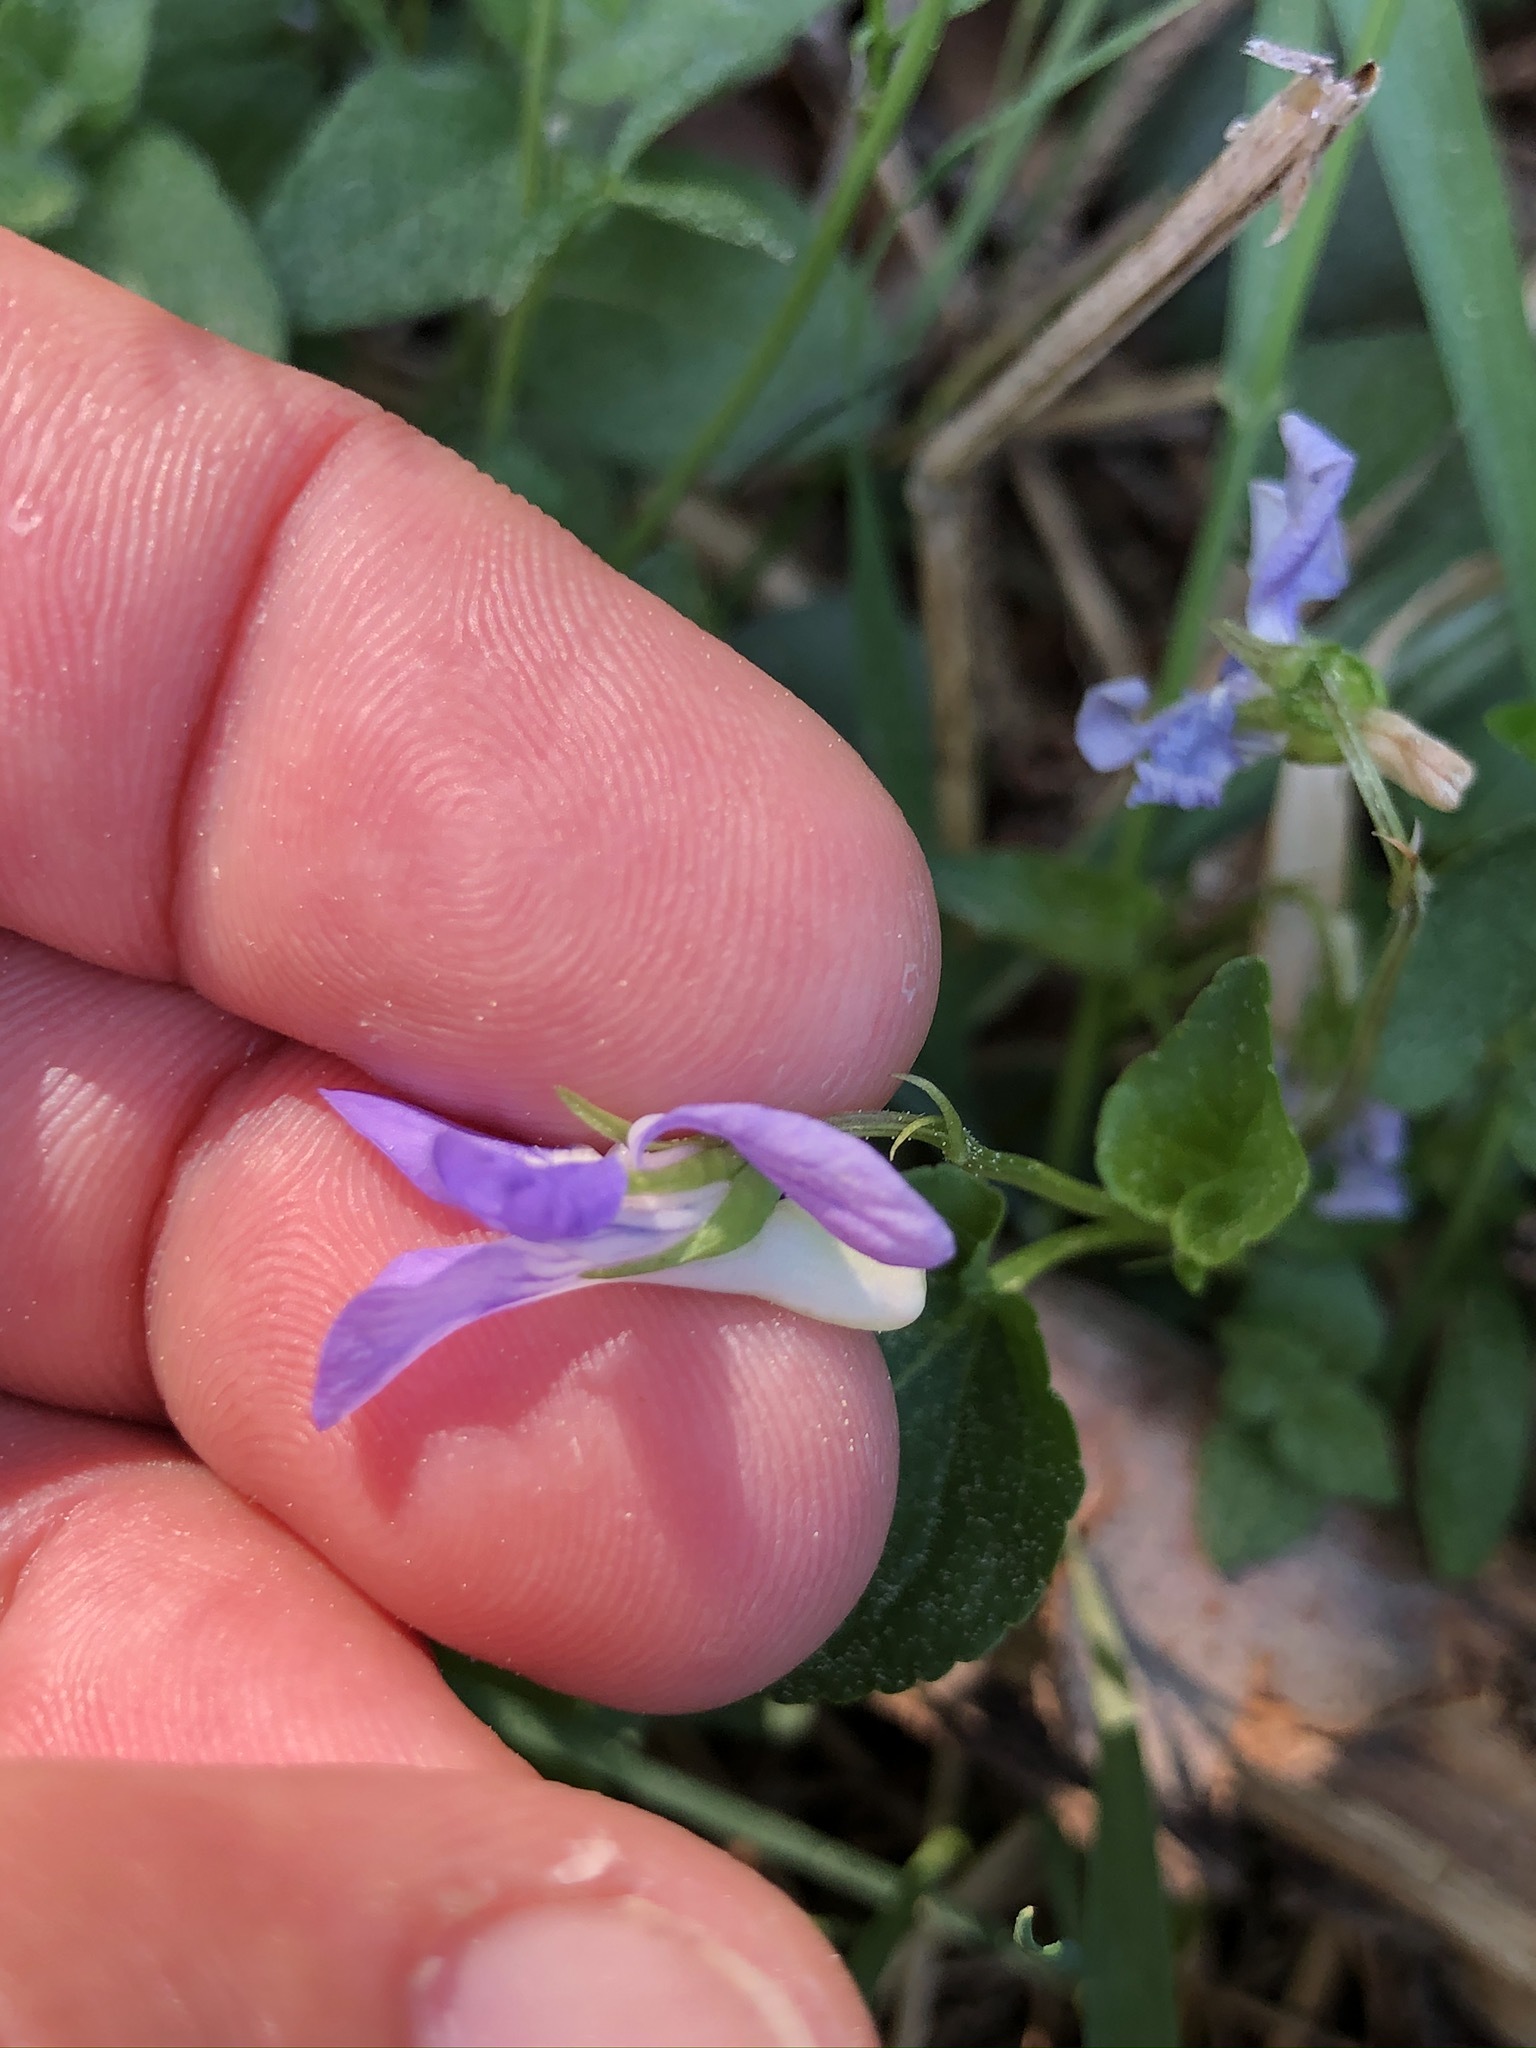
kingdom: Plantae
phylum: Tracheophyta
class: Magnoliopsida
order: Malpighiales
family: Violaceae
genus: Viola
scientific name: Viola riviniana
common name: Common dog-violet
